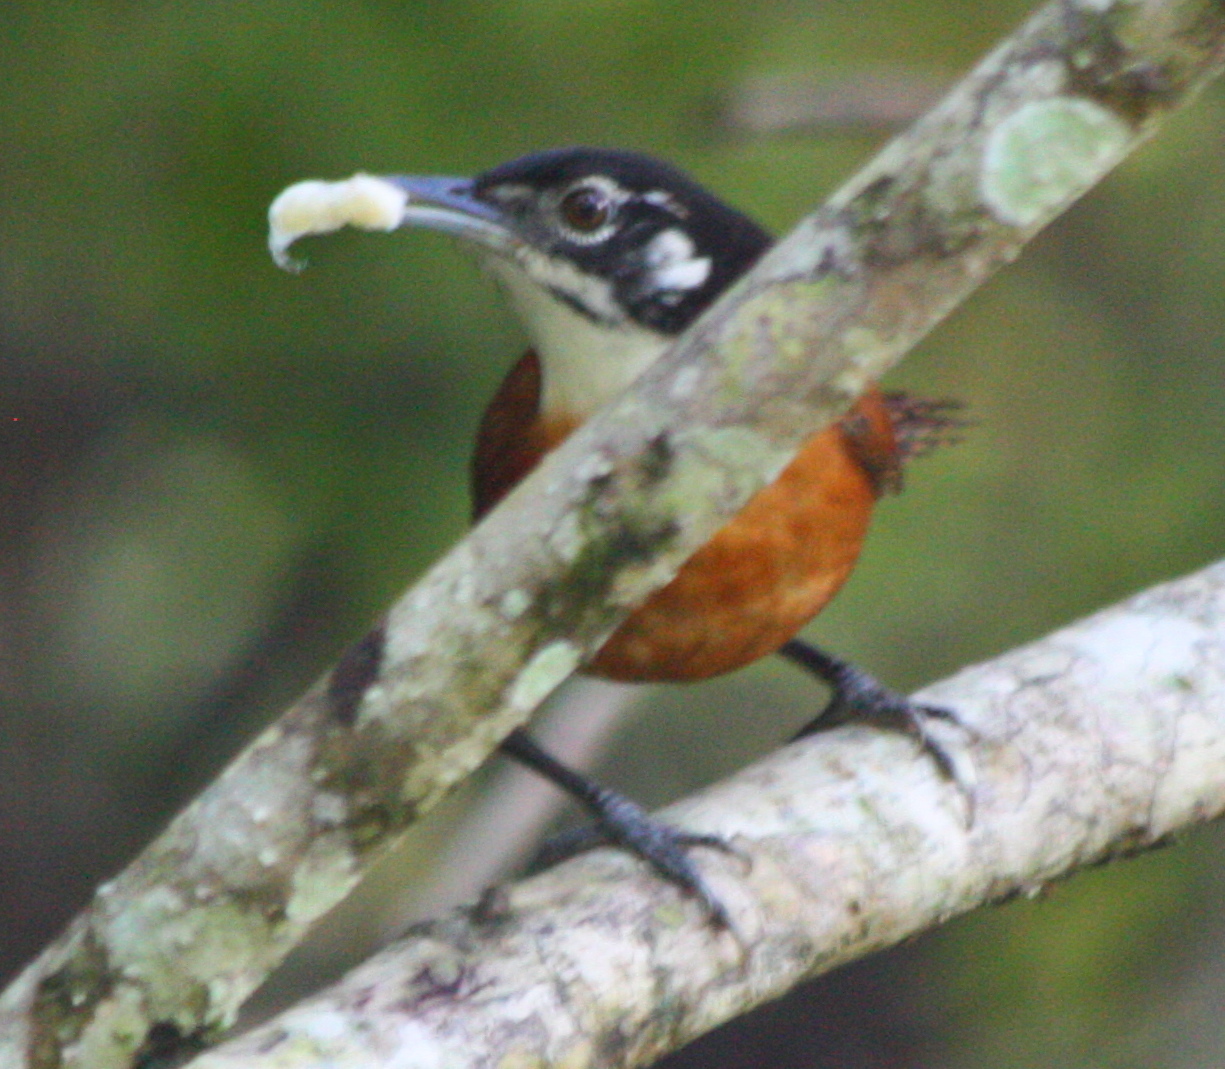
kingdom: Animalia
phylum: Chordata
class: Aves
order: Passeriformes
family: Troglodytidae
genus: Cantorchilus
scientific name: Cantorchilus nigricapillus
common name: Bay wren
